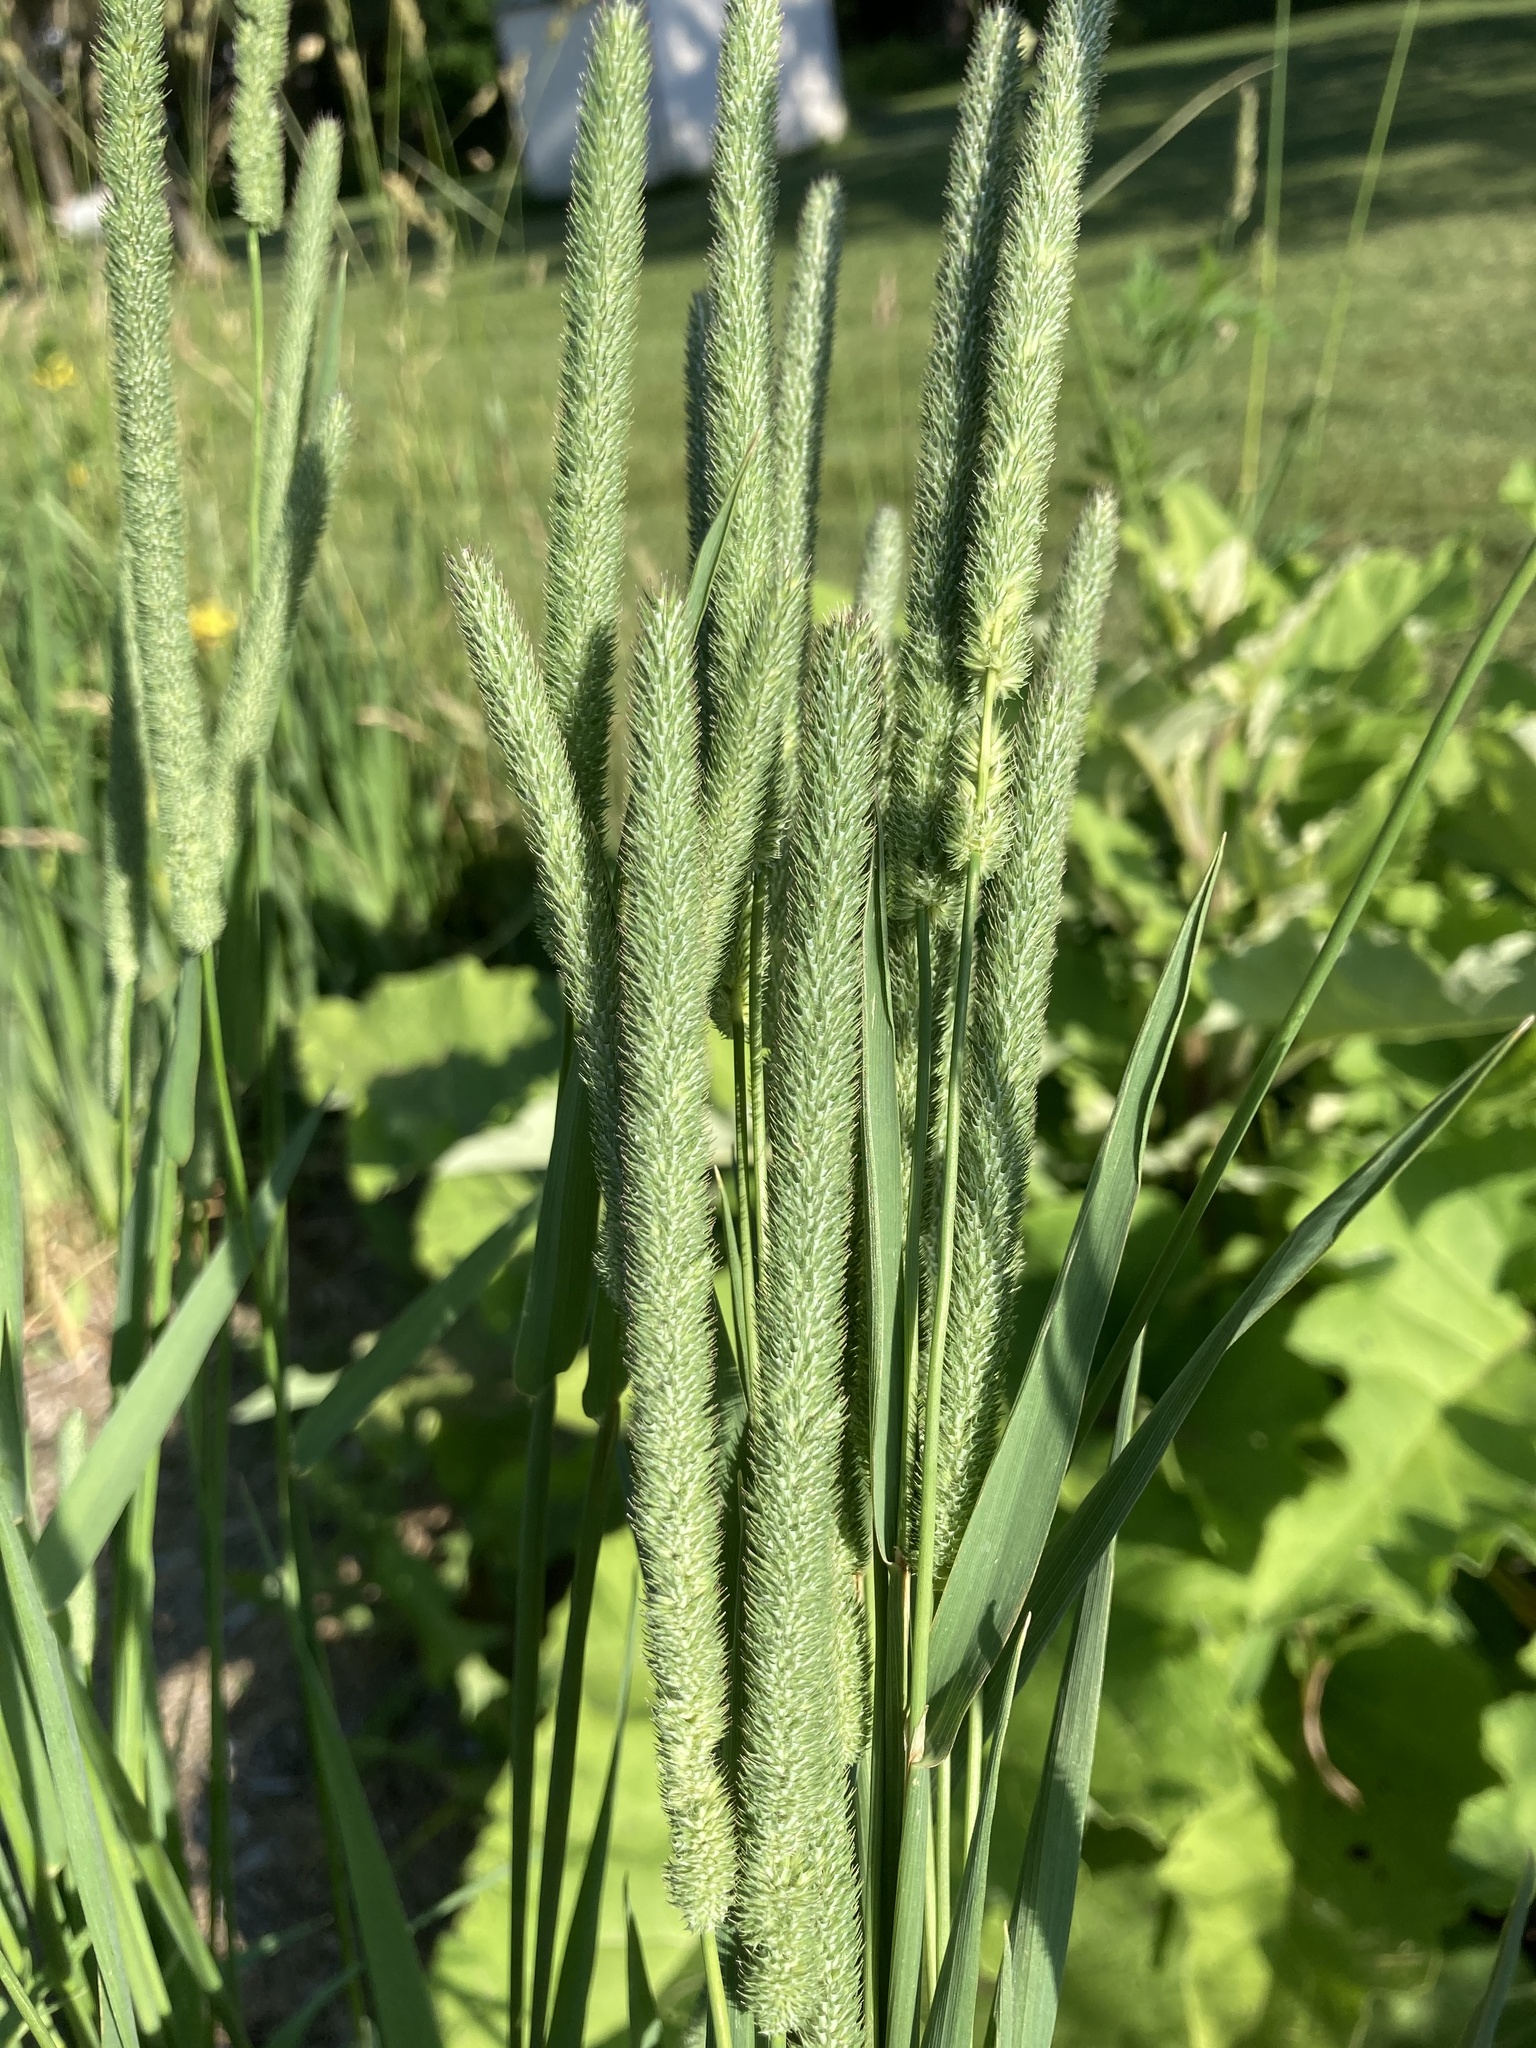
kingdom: Plantae
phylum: Tracheophyta
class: Liliopsida
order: Poales
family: Poaceae
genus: Phleum
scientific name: Phleum pratense
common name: Timothy grass
